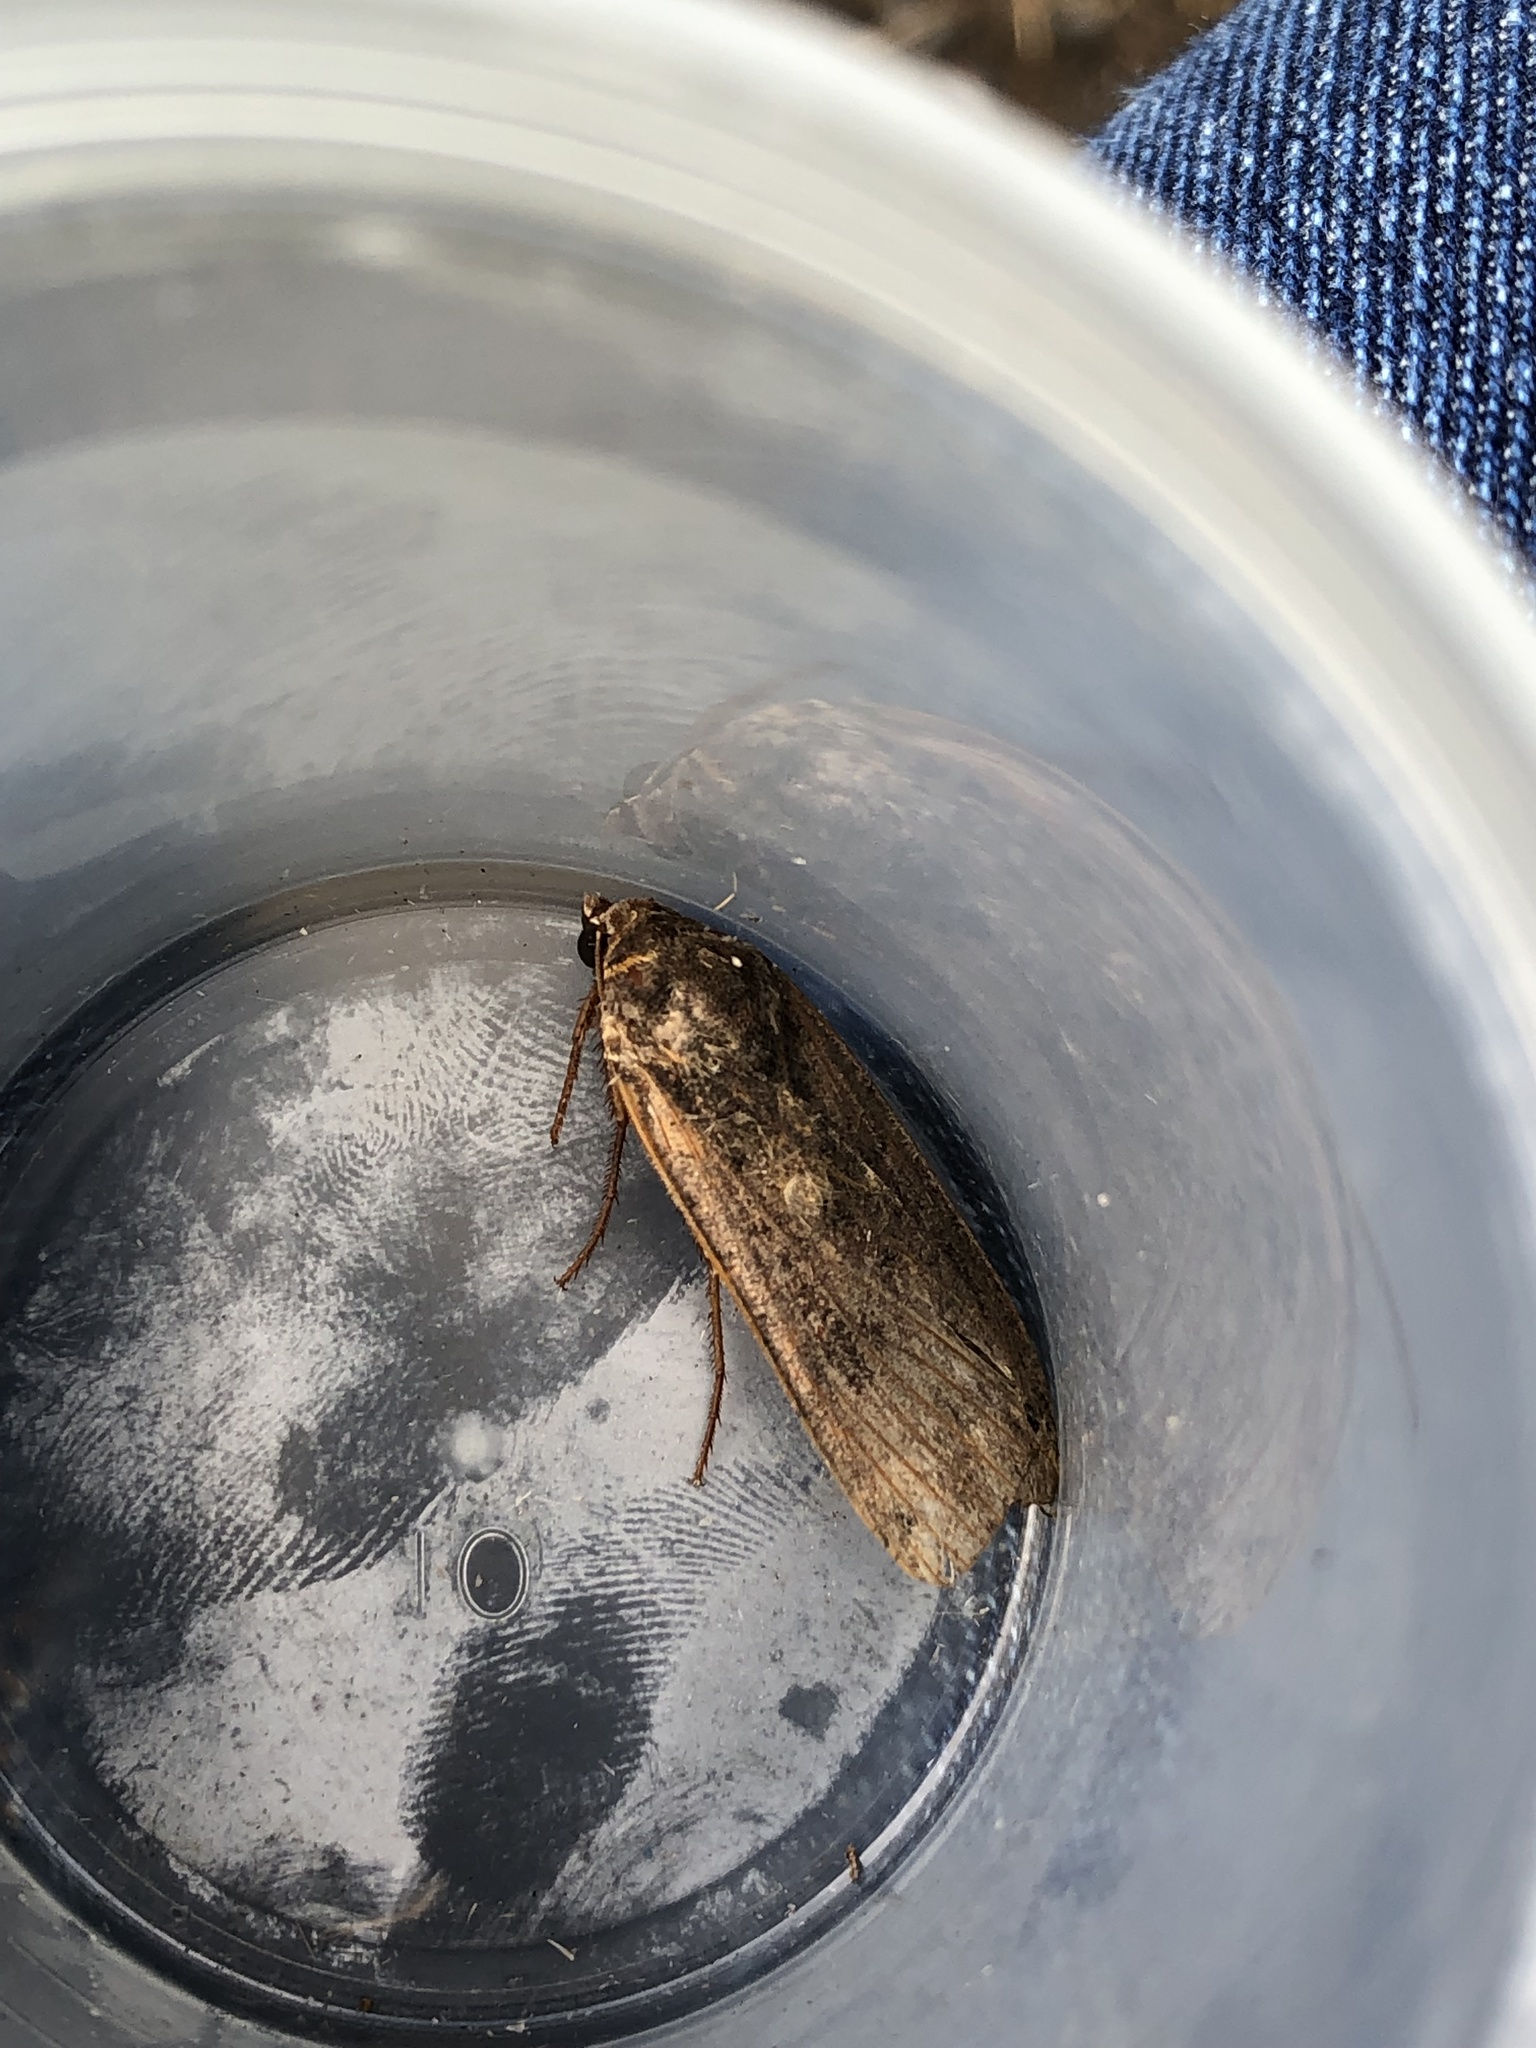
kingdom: Animalia
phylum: Arthropoda
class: Insecta
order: Lepidoptera
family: Noctuidae
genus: Noctua
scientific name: Noctua pronuba
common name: Large yellow underwing
